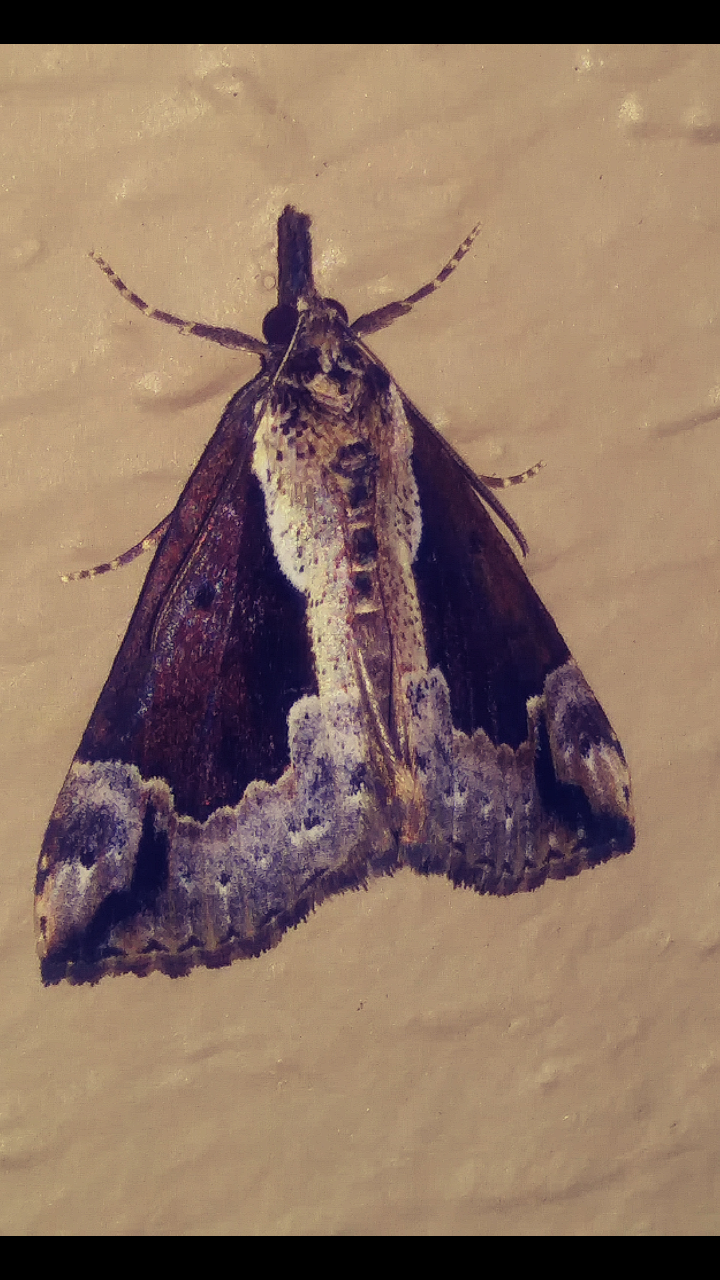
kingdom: Animalia
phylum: Arthropoda
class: Insecta
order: Lepidoptera
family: Erebidae
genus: Hypena
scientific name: Hypena baltimoralis
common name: Baltimore snout
